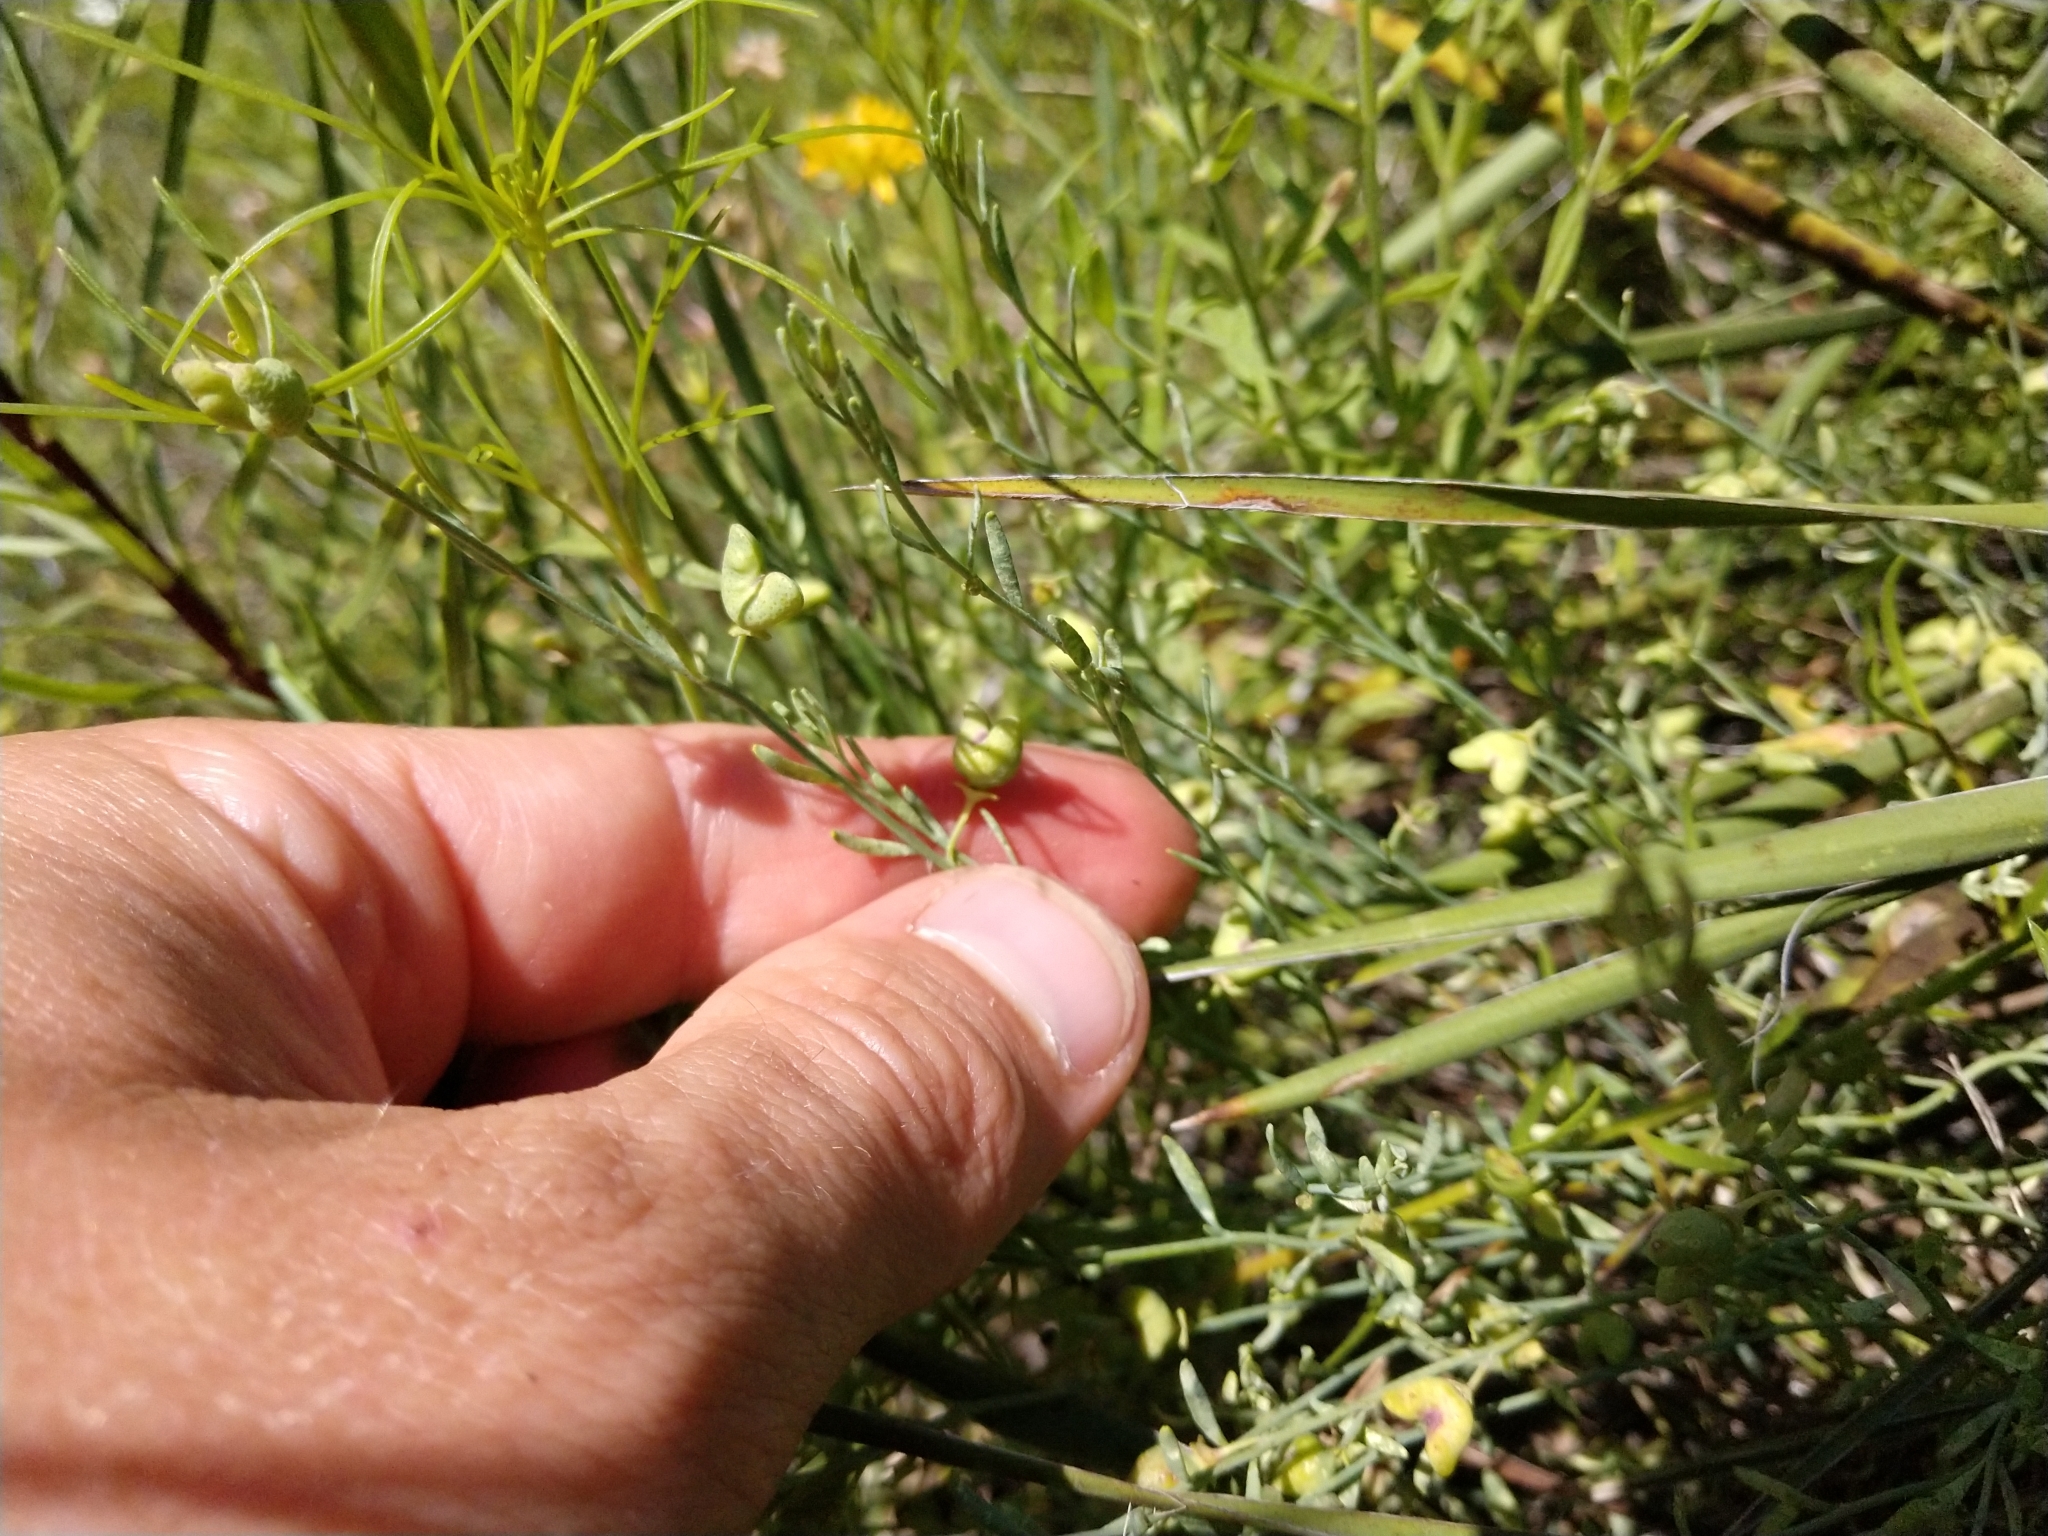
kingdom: Plantae
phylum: Tracheophyta
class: Magnoliopsida
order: Sapindales
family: Rutaceae
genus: Thamnosma
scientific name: Thamnosma texana
